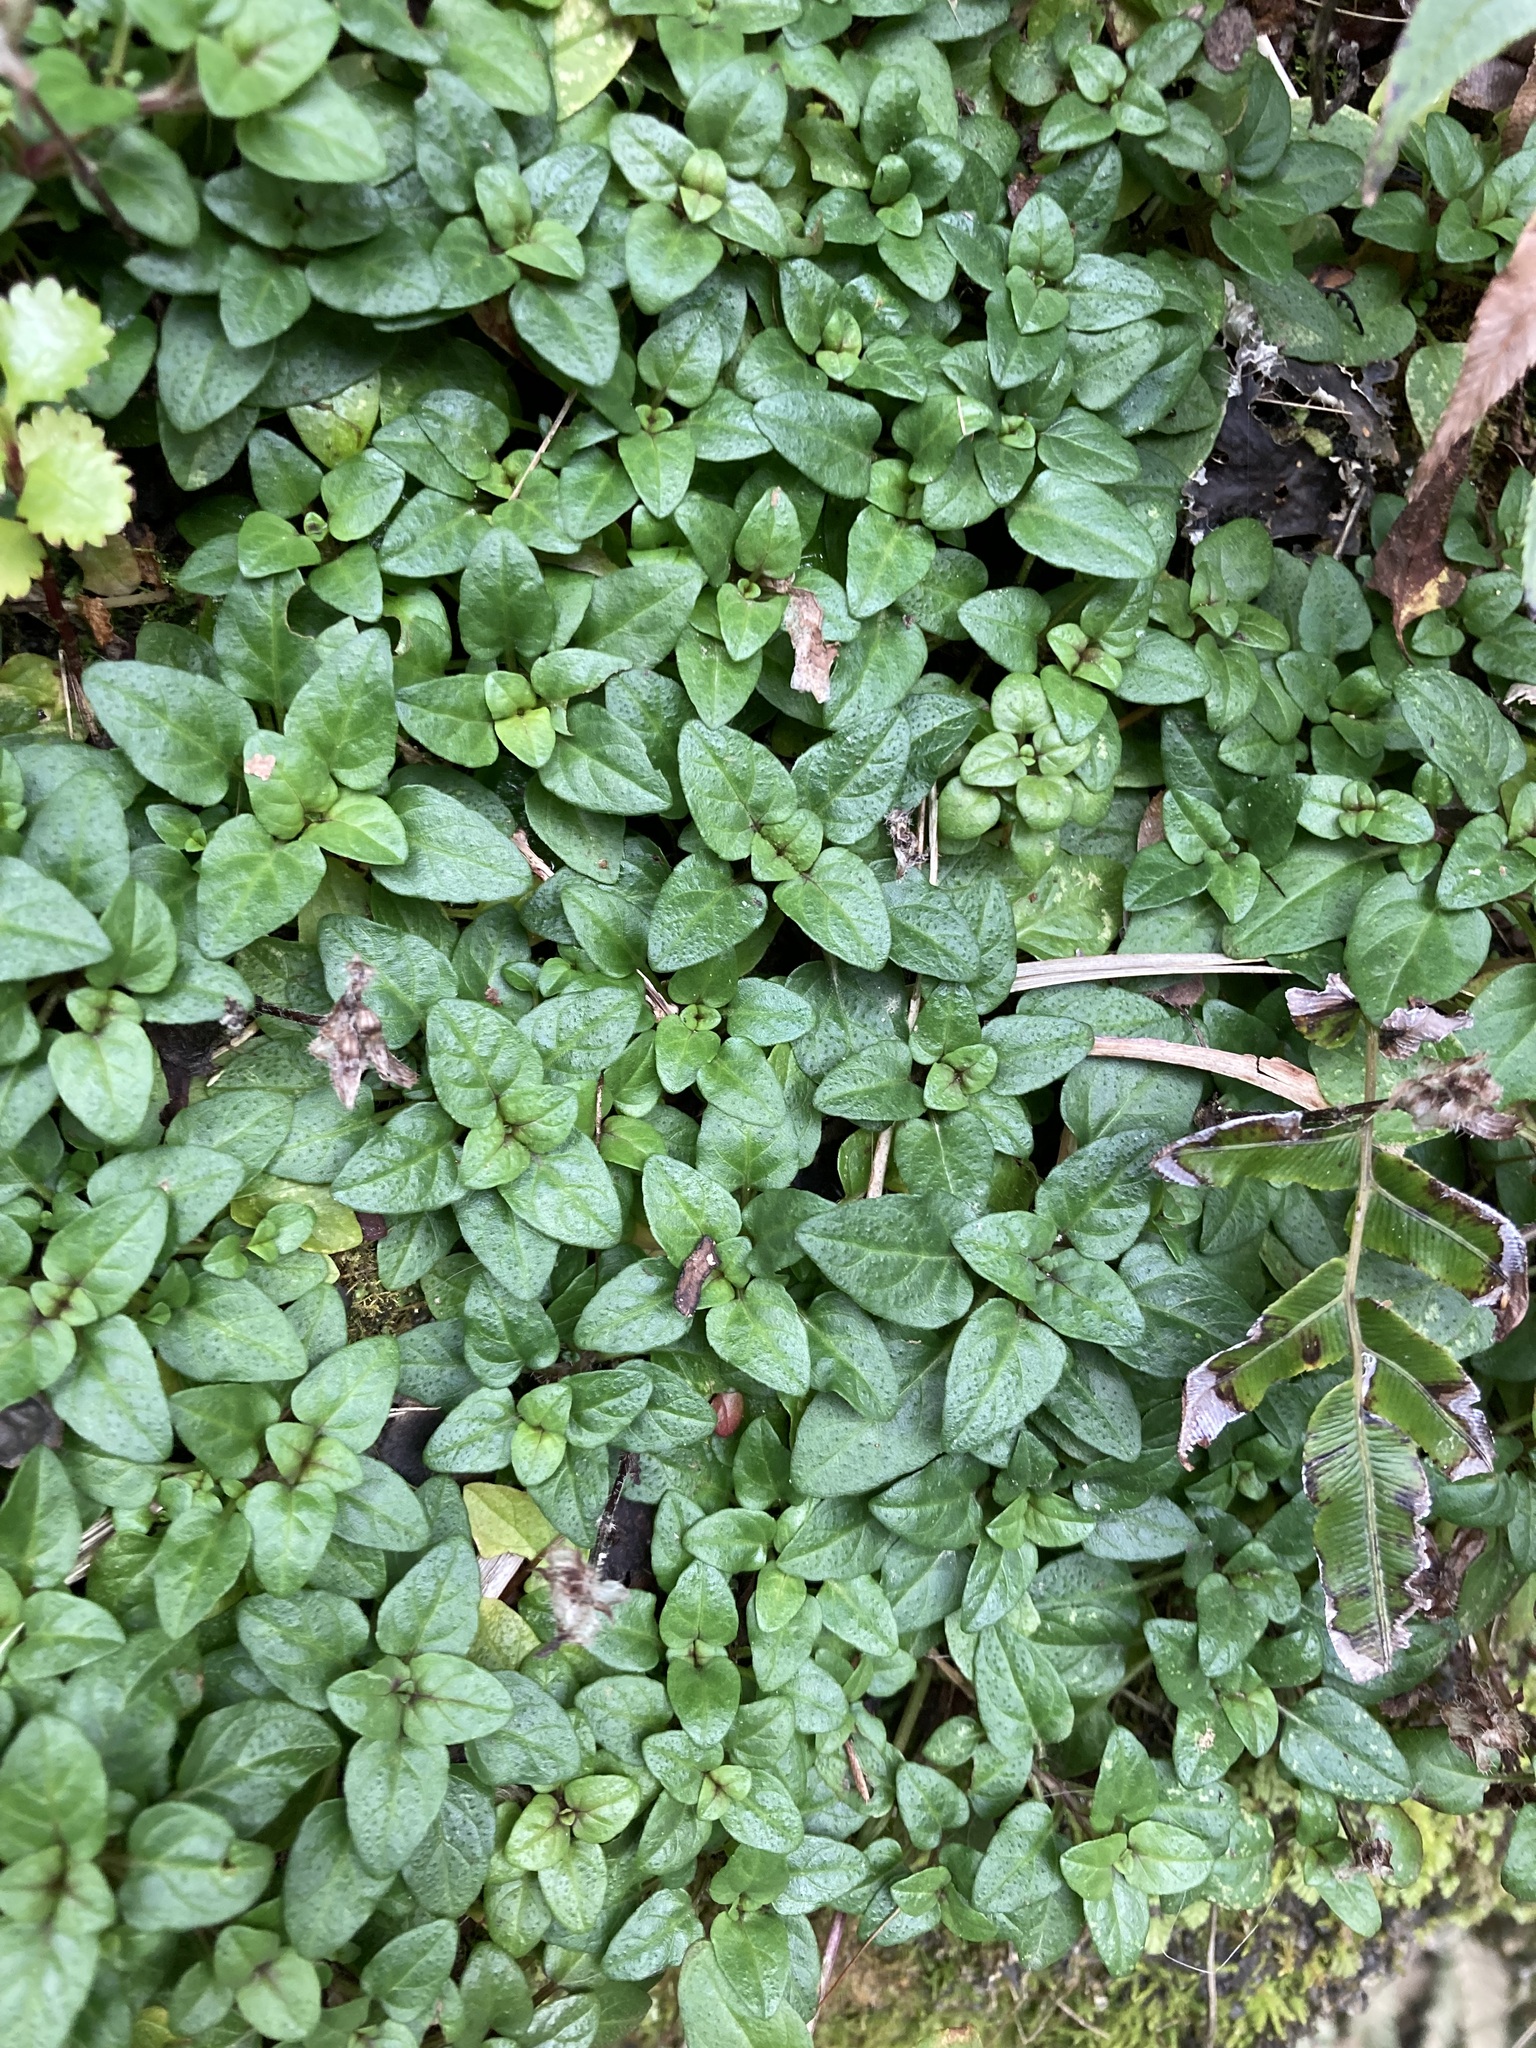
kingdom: Plantae
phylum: Tracheophyta
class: Magnoliopsida
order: Lamiales
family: Lamiaceae
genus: Prunella
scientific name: Prunella vulgaris
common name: Heal-all
